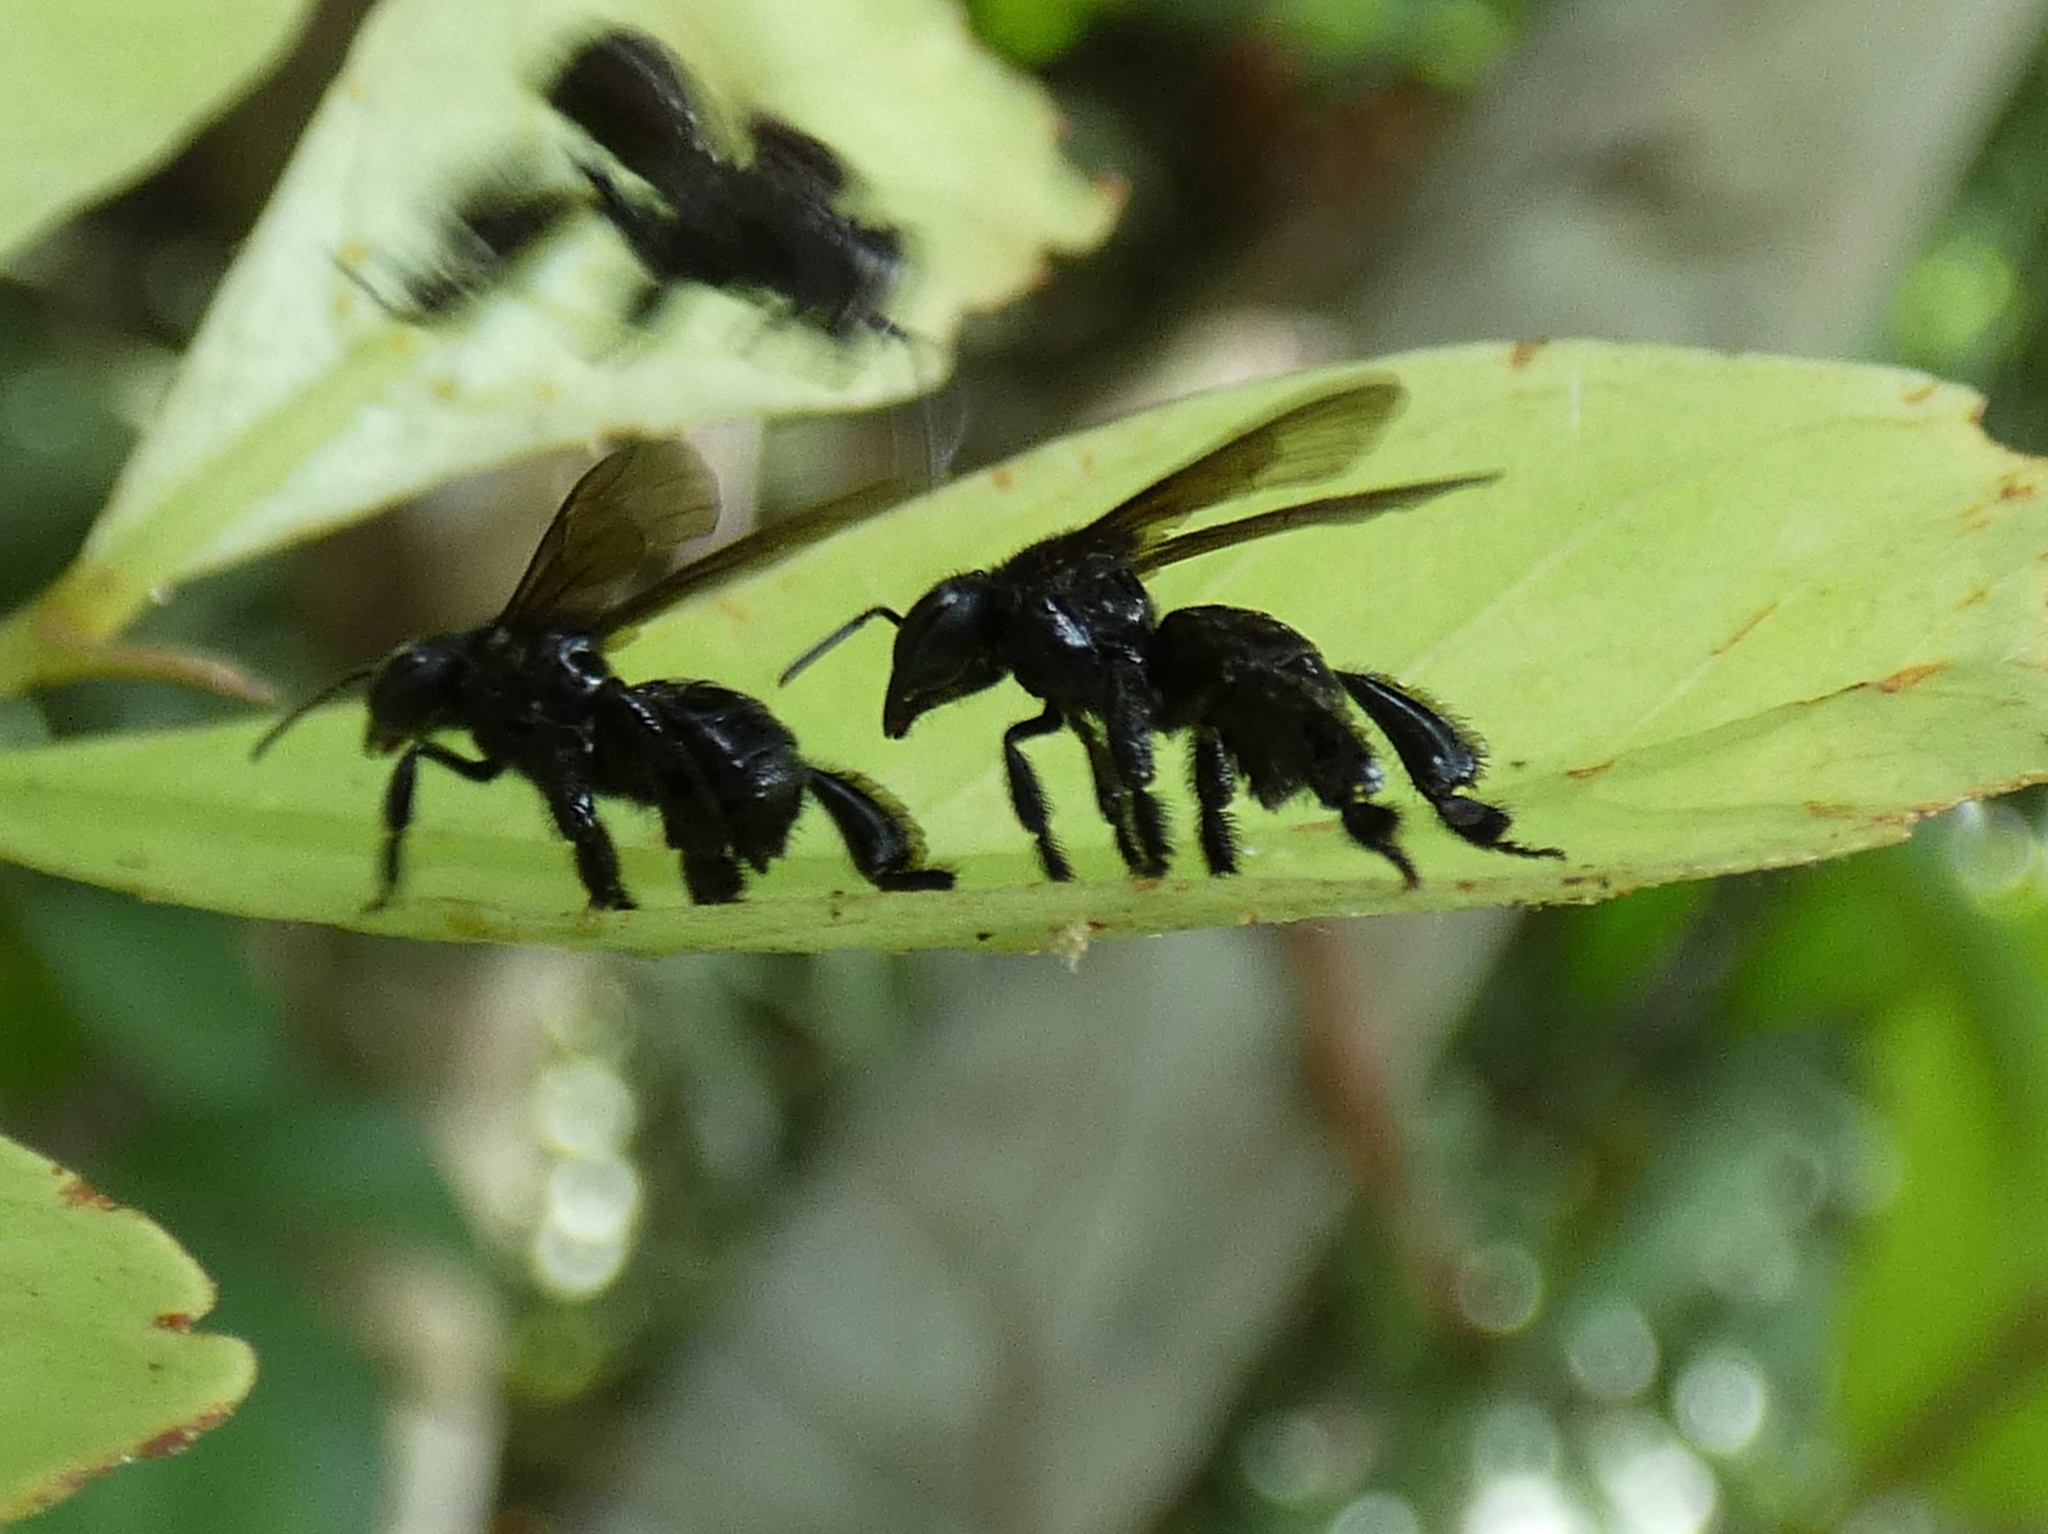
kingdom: Animalia
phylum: Arthropoda
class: Insecta
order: Hymenoptera
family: Apidae
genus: Trigona
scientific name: Trigona fuscipennis
